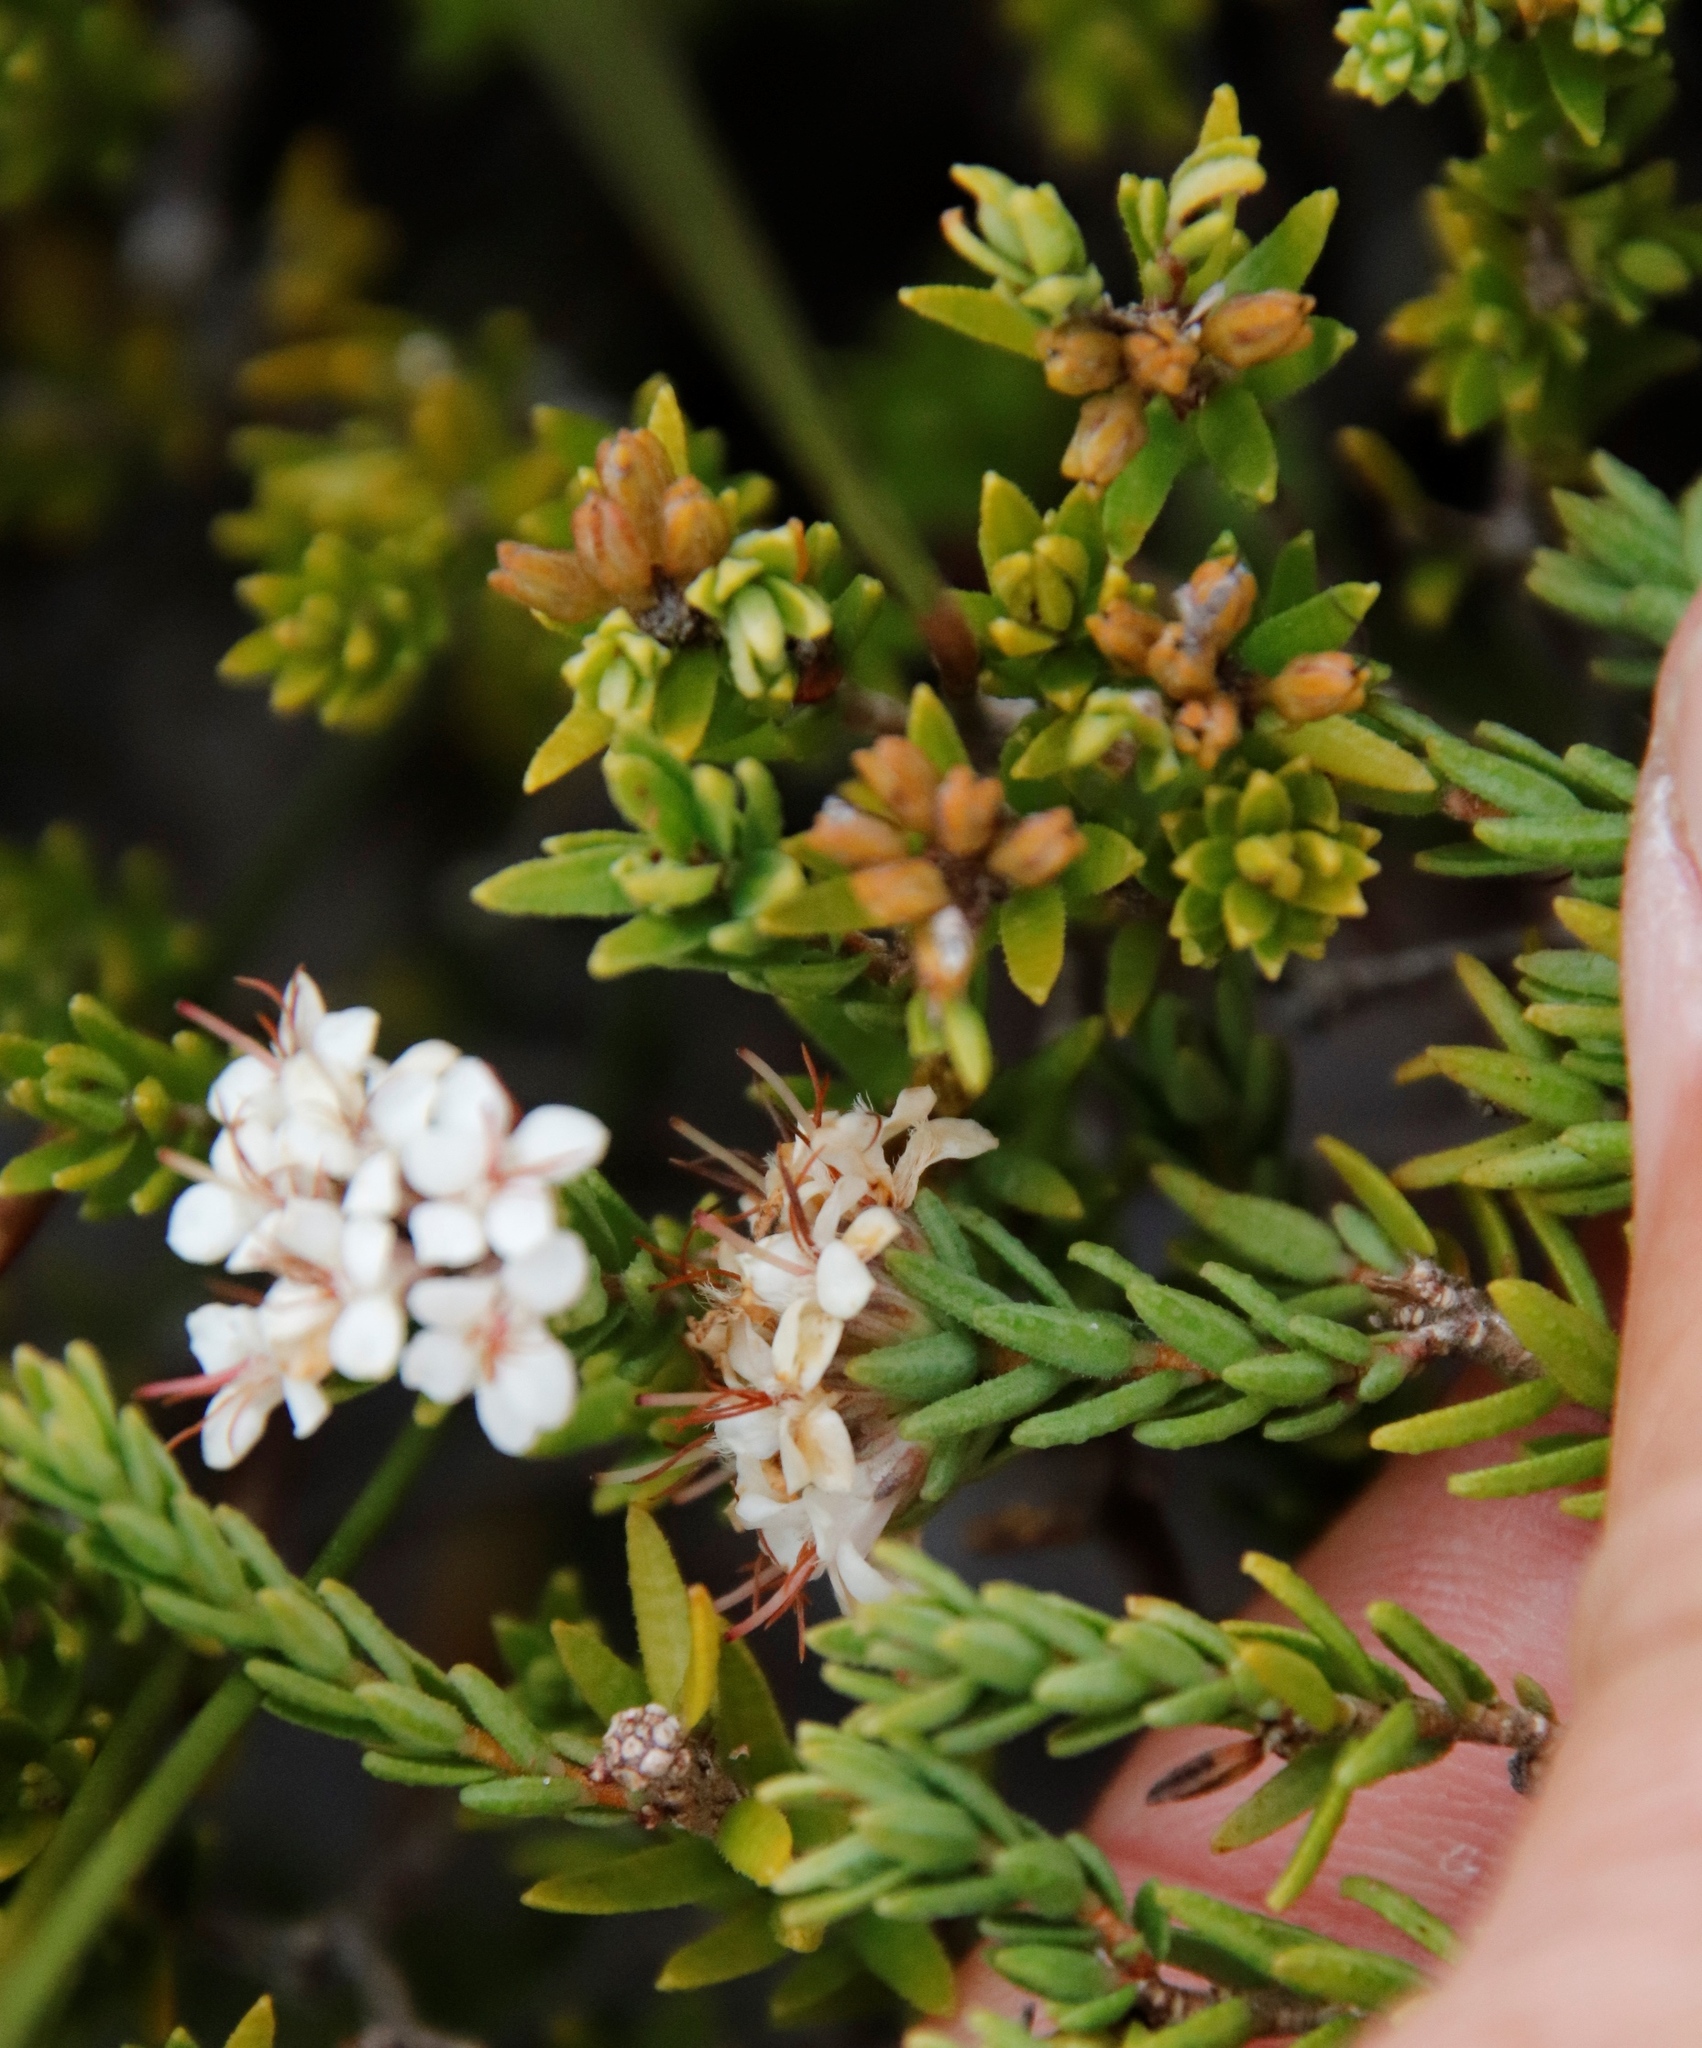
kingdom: Plantae
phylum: Tracheophyta
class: Magnoliopsida
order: Sapindales
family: Rutaceae
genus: Macrostylis
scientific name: Macrostylis villosa
